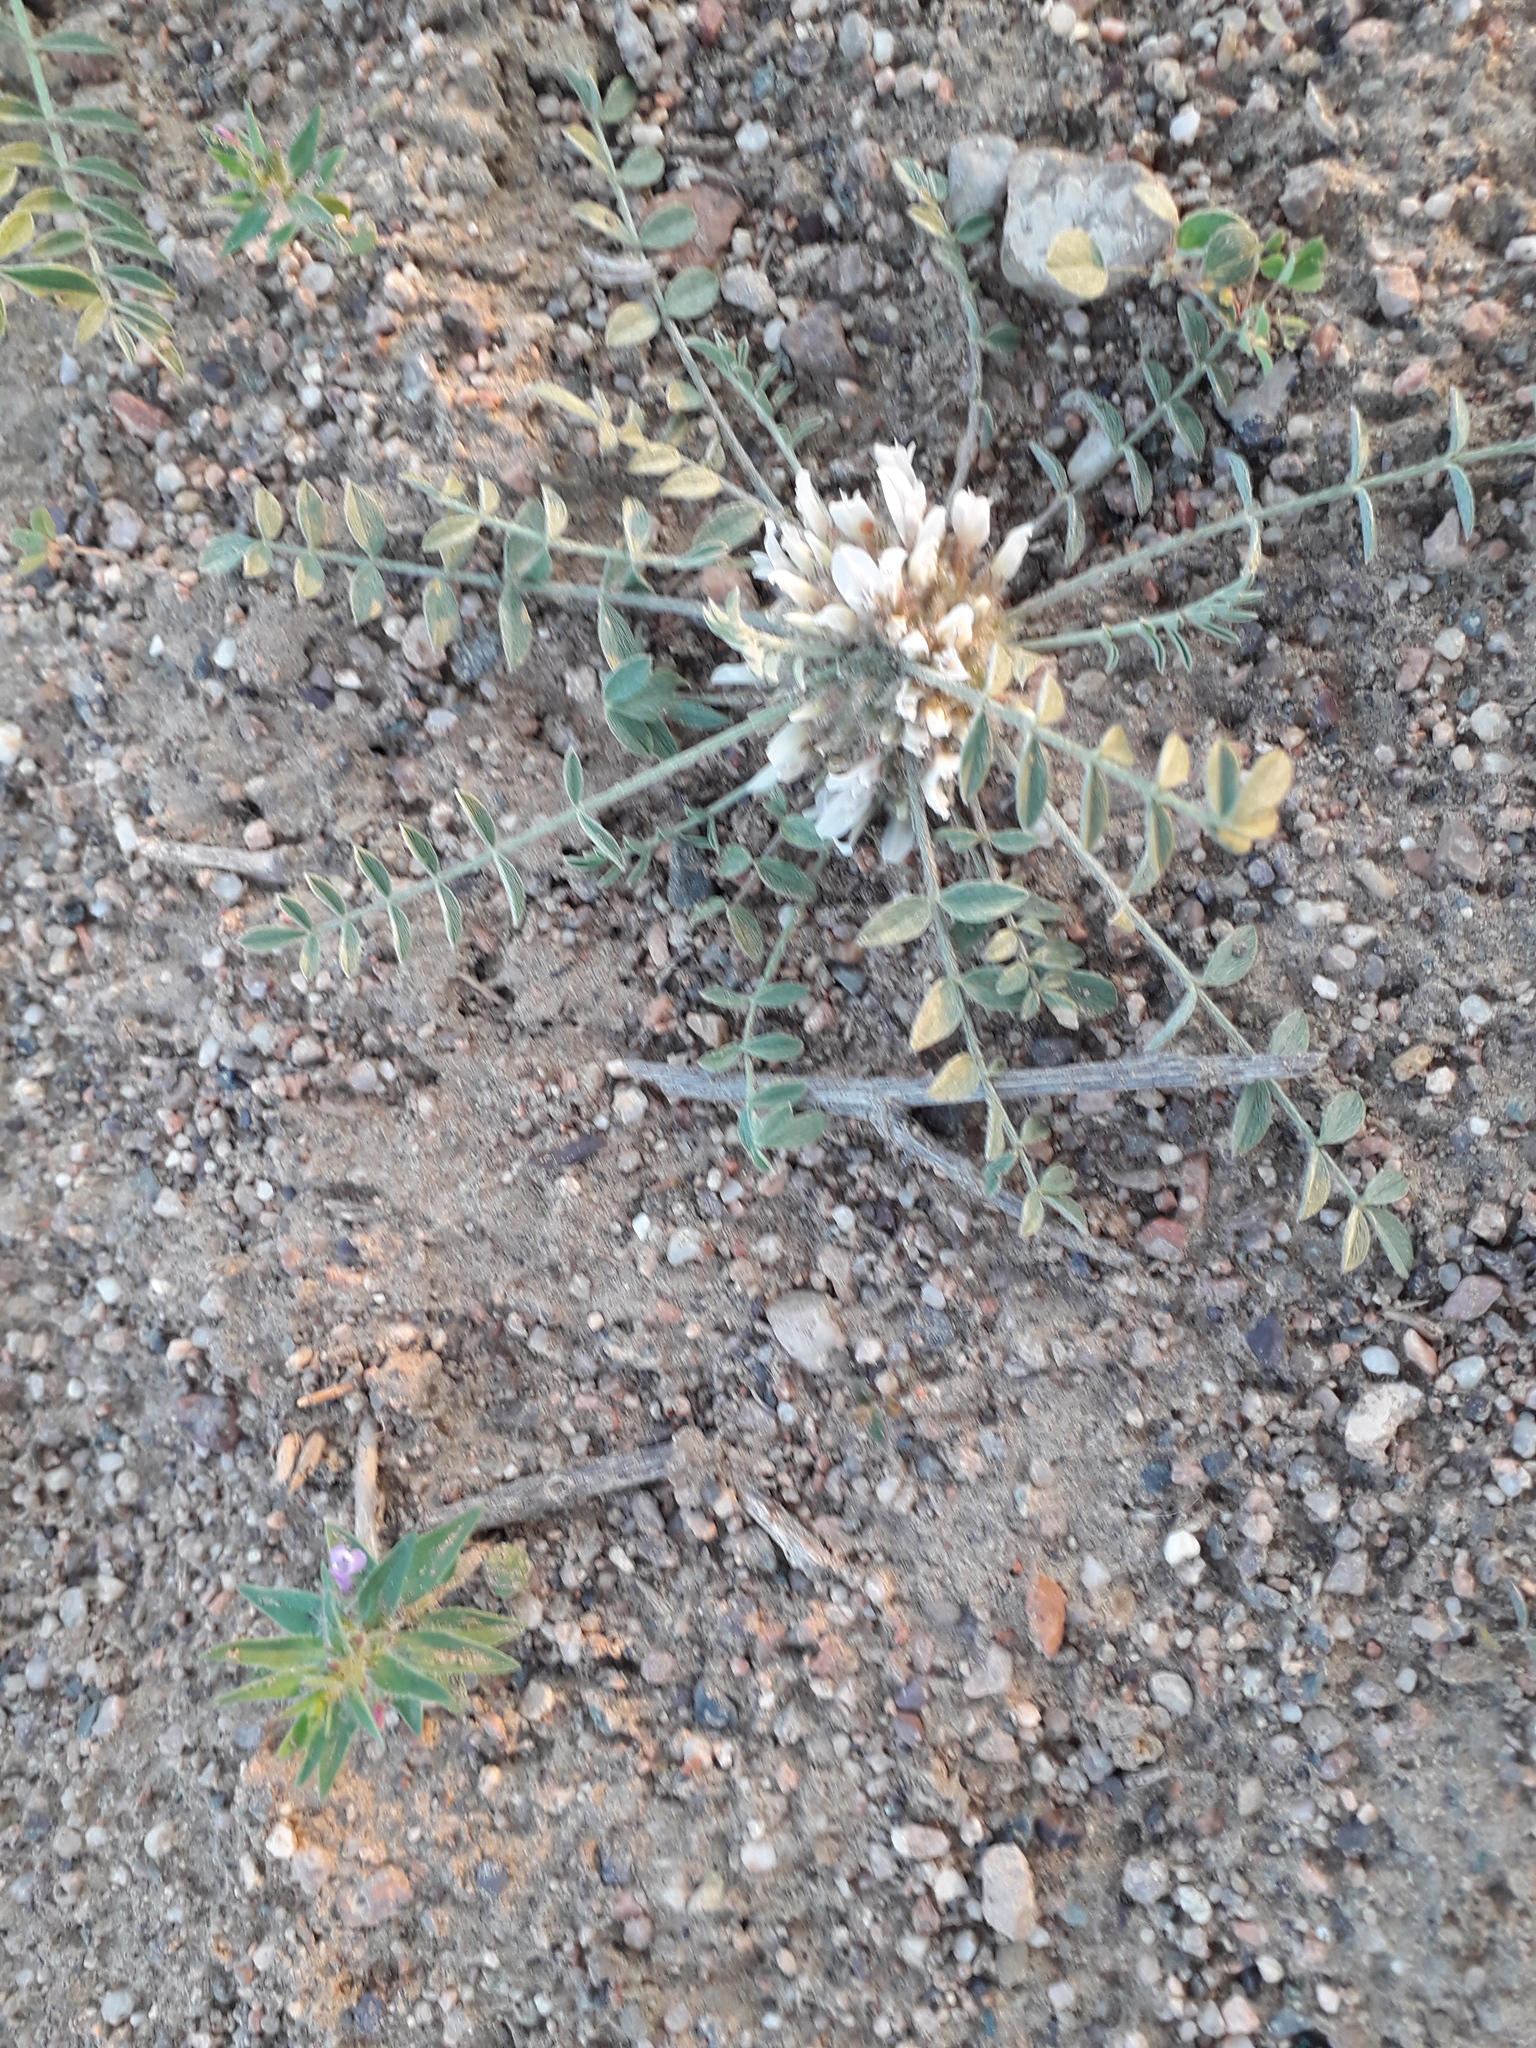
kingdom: Plantae
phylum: Tracheophyta
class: Magnoliopsida
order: Fabales
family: Fabaceae
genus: Astragalus
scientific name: Astragalus scabrisetus
